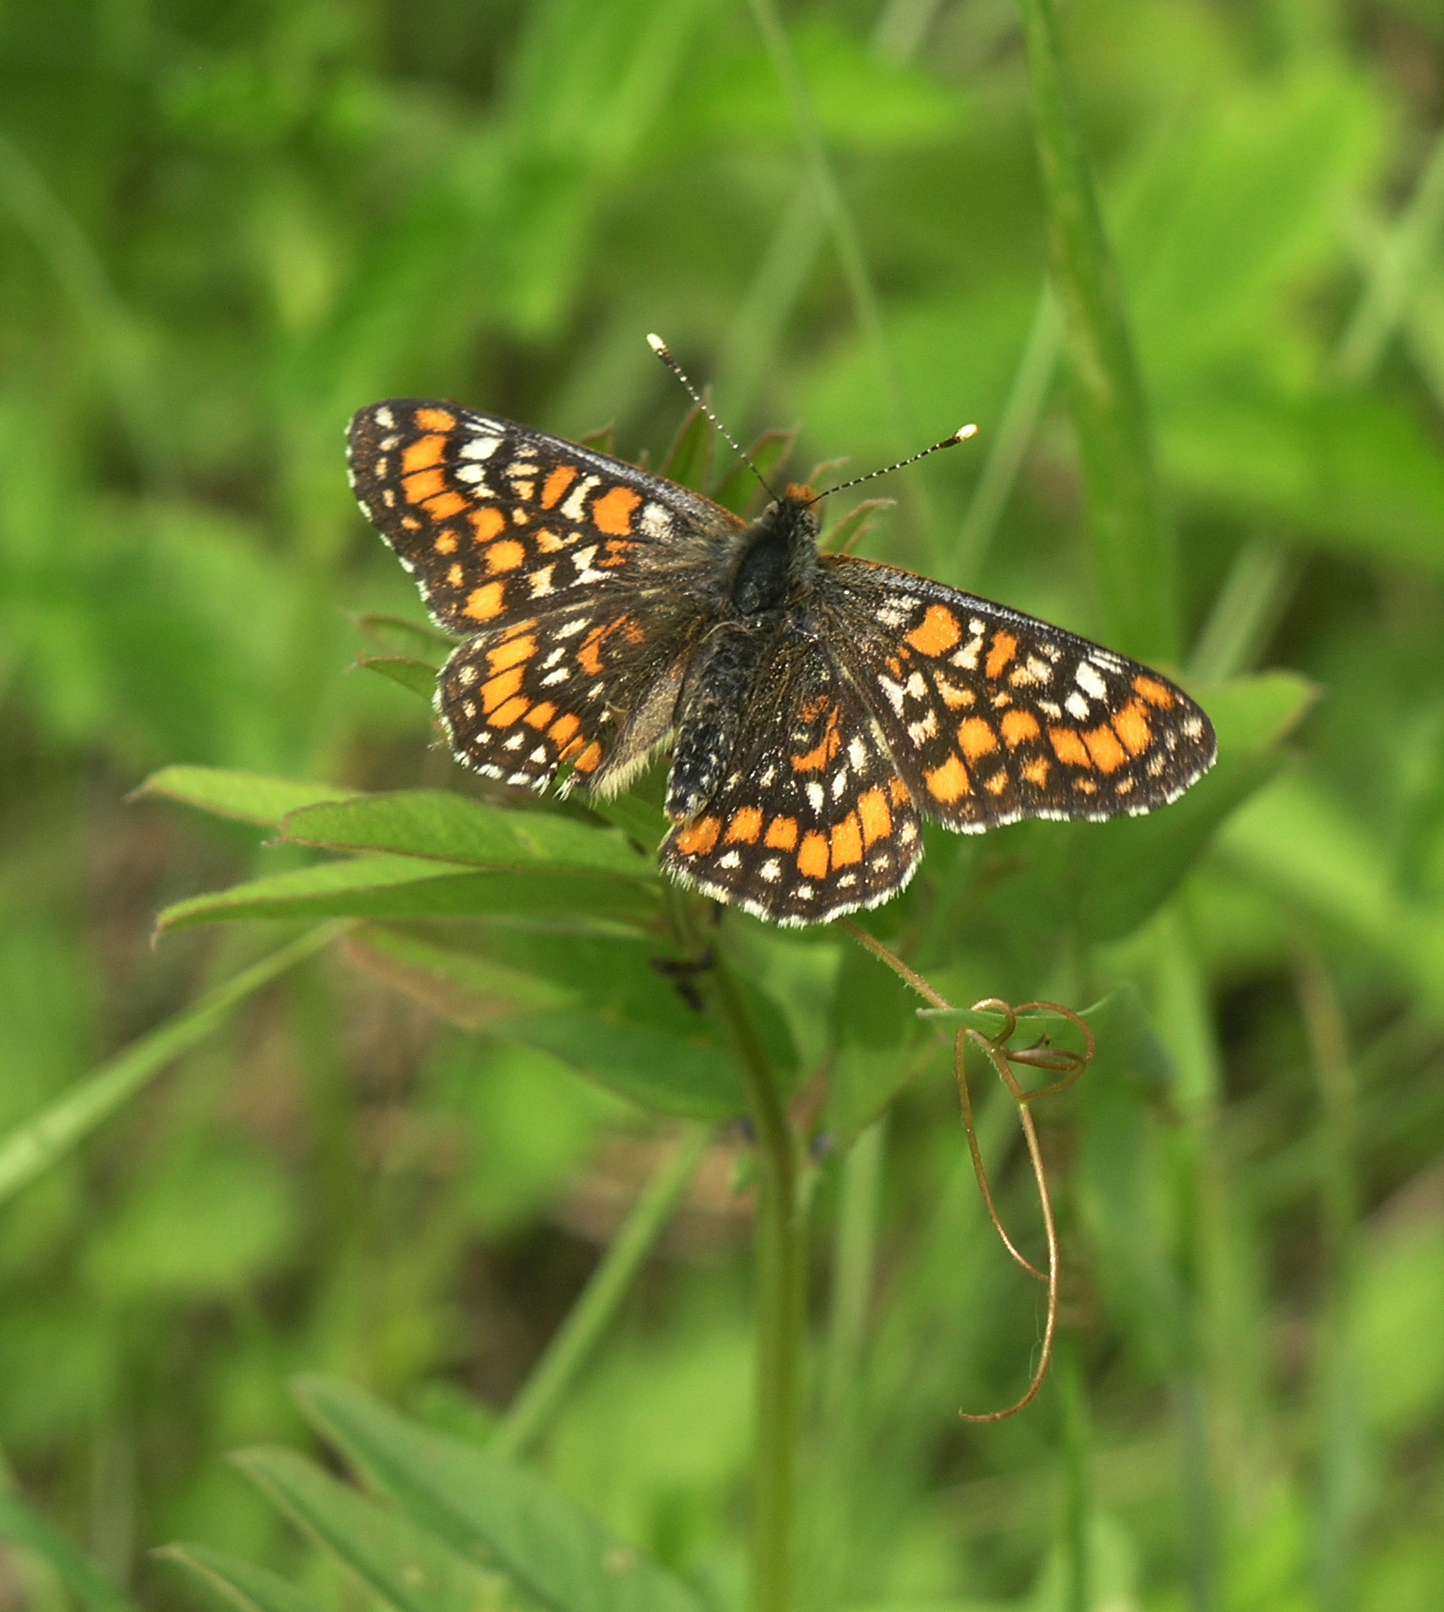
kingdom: Animalia
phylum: Arthropoda
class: Insecta
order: Lepidoptera
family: Nymphalidae
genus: Euphydryas
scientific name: Euphydryas maturna
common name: Scarce fritillary
